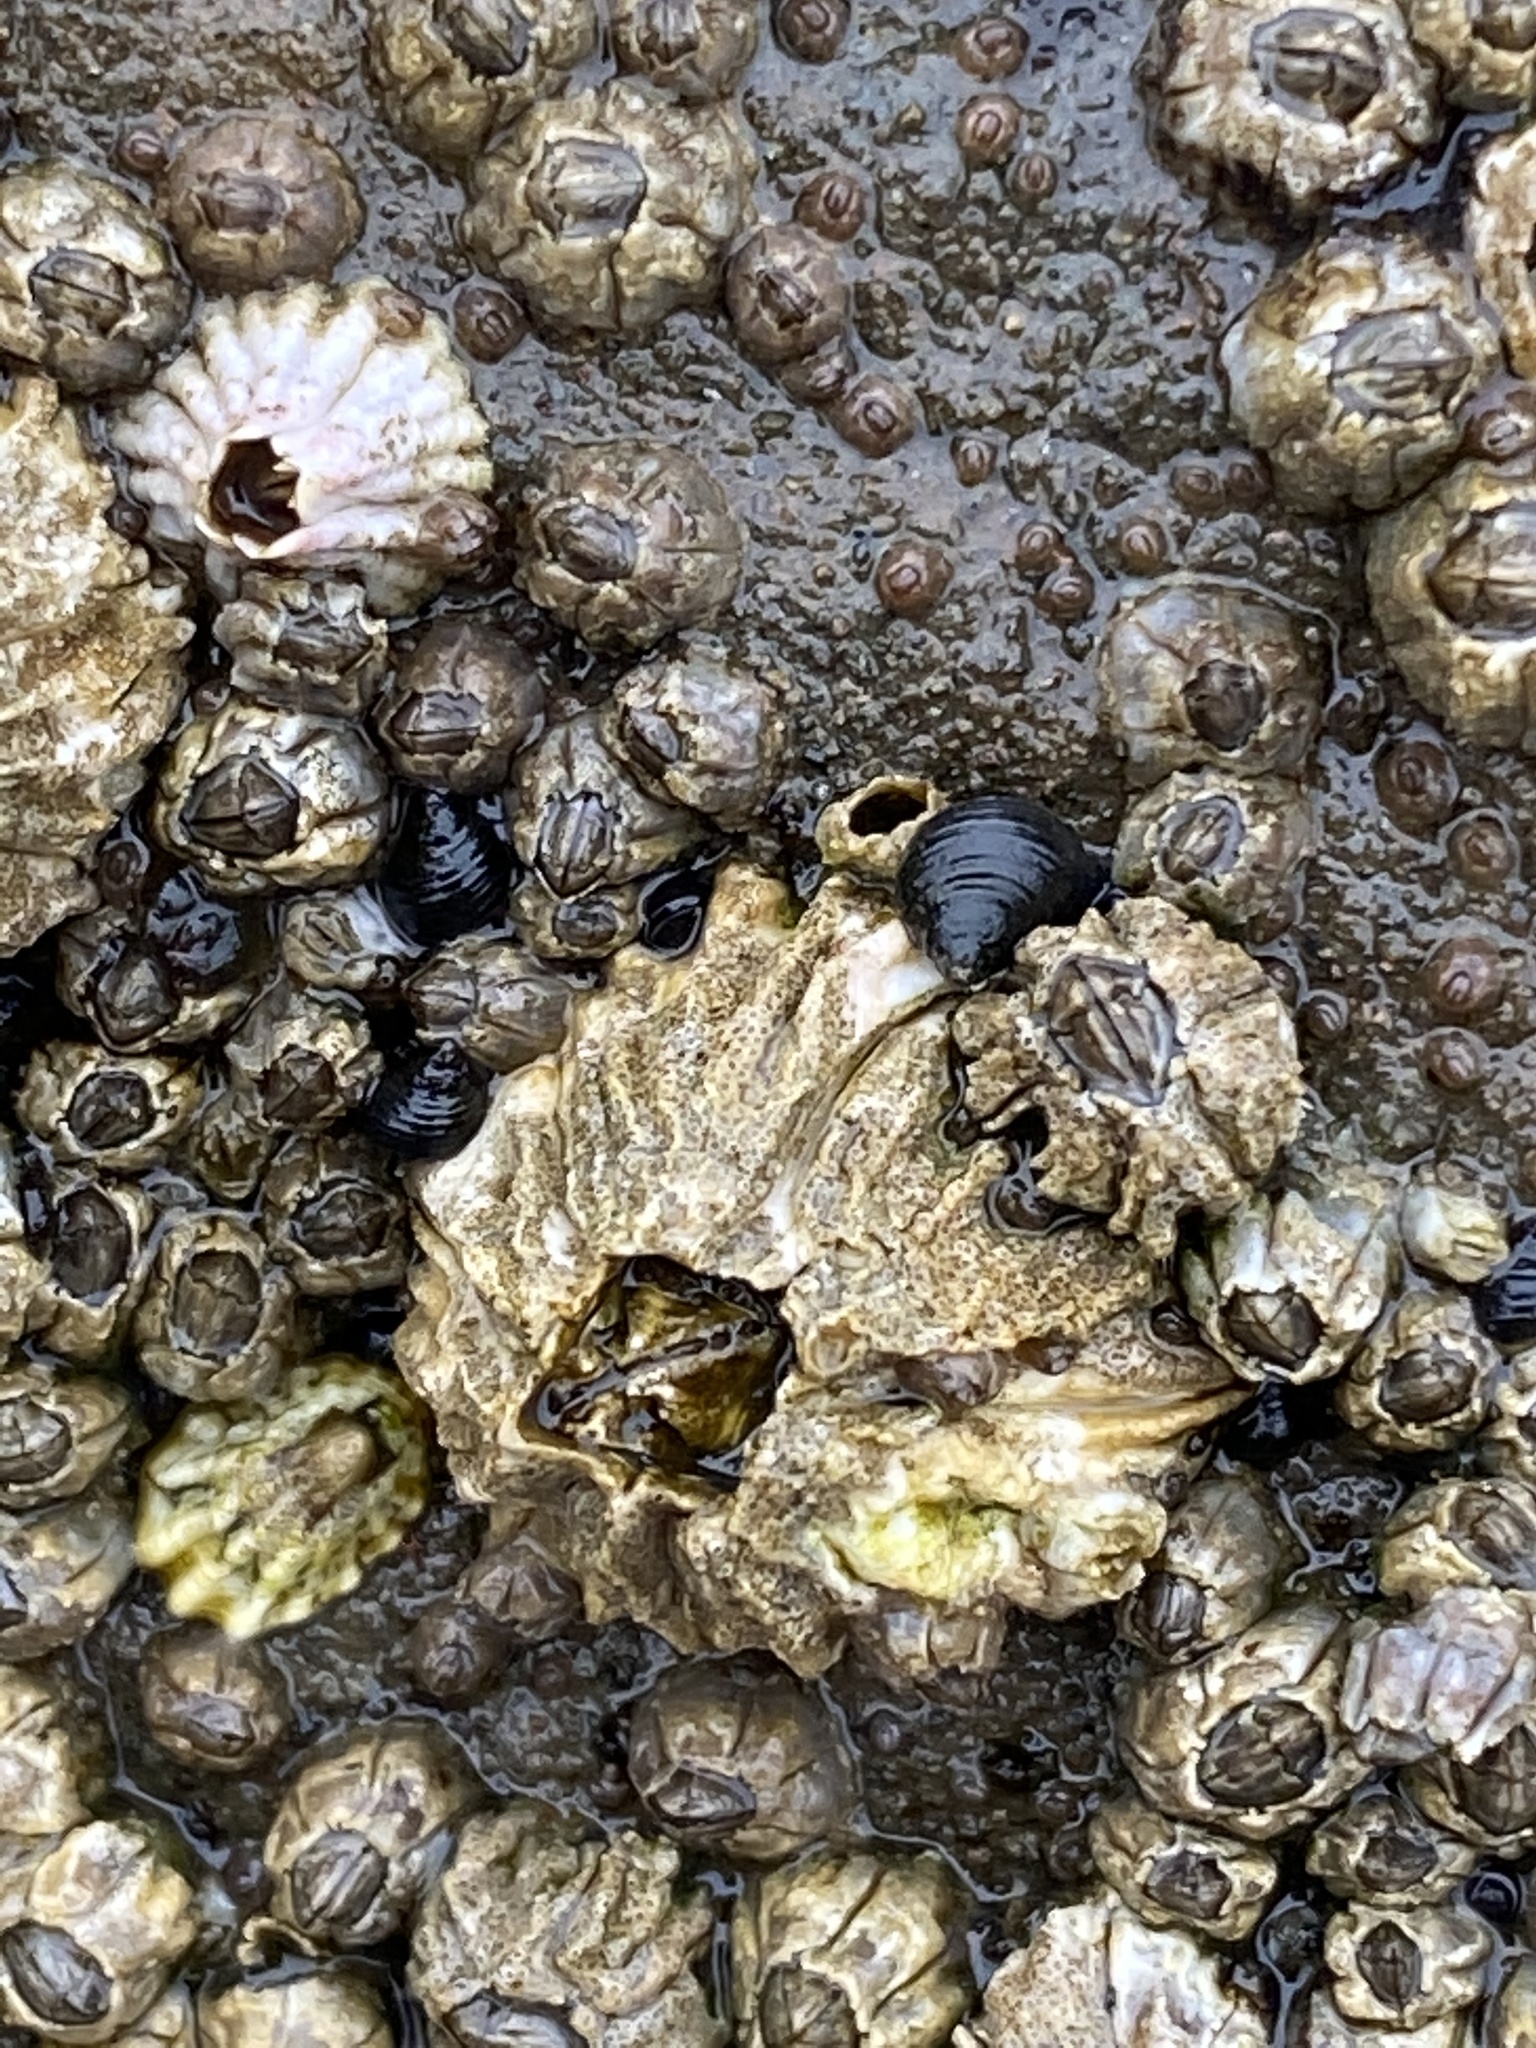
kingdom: Animalia
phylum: Arthropoda
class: Maxillopoda
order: Sessilia
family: Balanidae
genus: Balanus
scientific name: Balanus glandula
